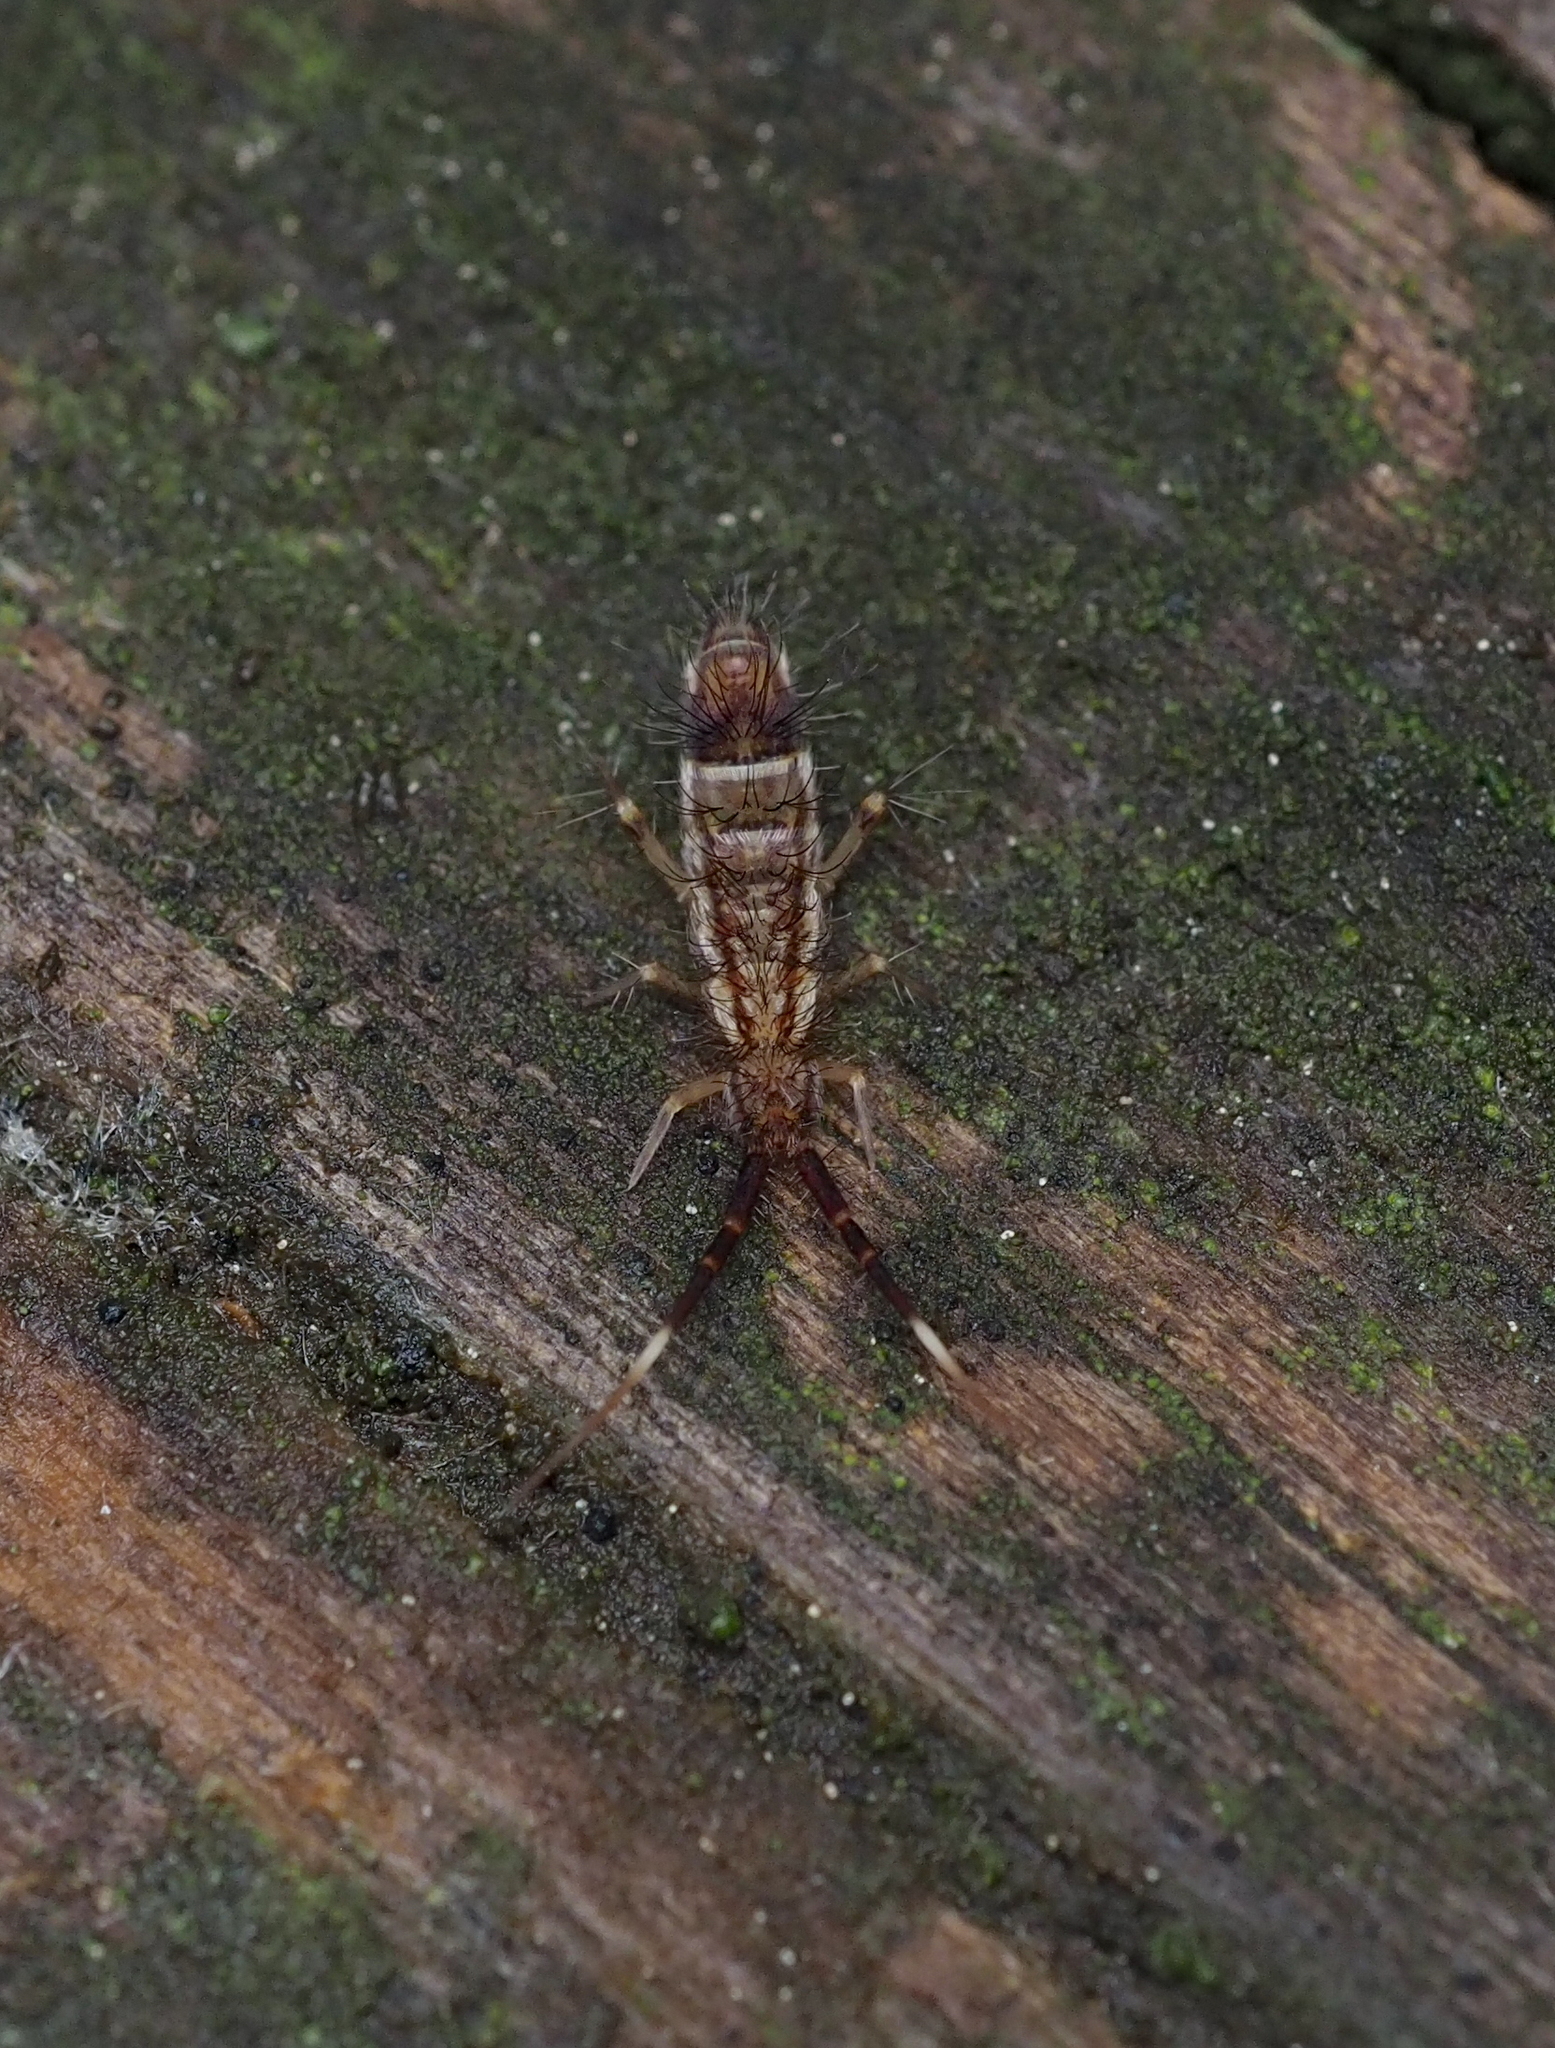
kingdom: Animalia
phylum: Arthropoda
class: Collembola
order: Entomobryomorpha
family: Entomobryidae
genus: Entomobrya
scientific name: Entomobrya nivalis
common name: Cosmopolitan springtail
